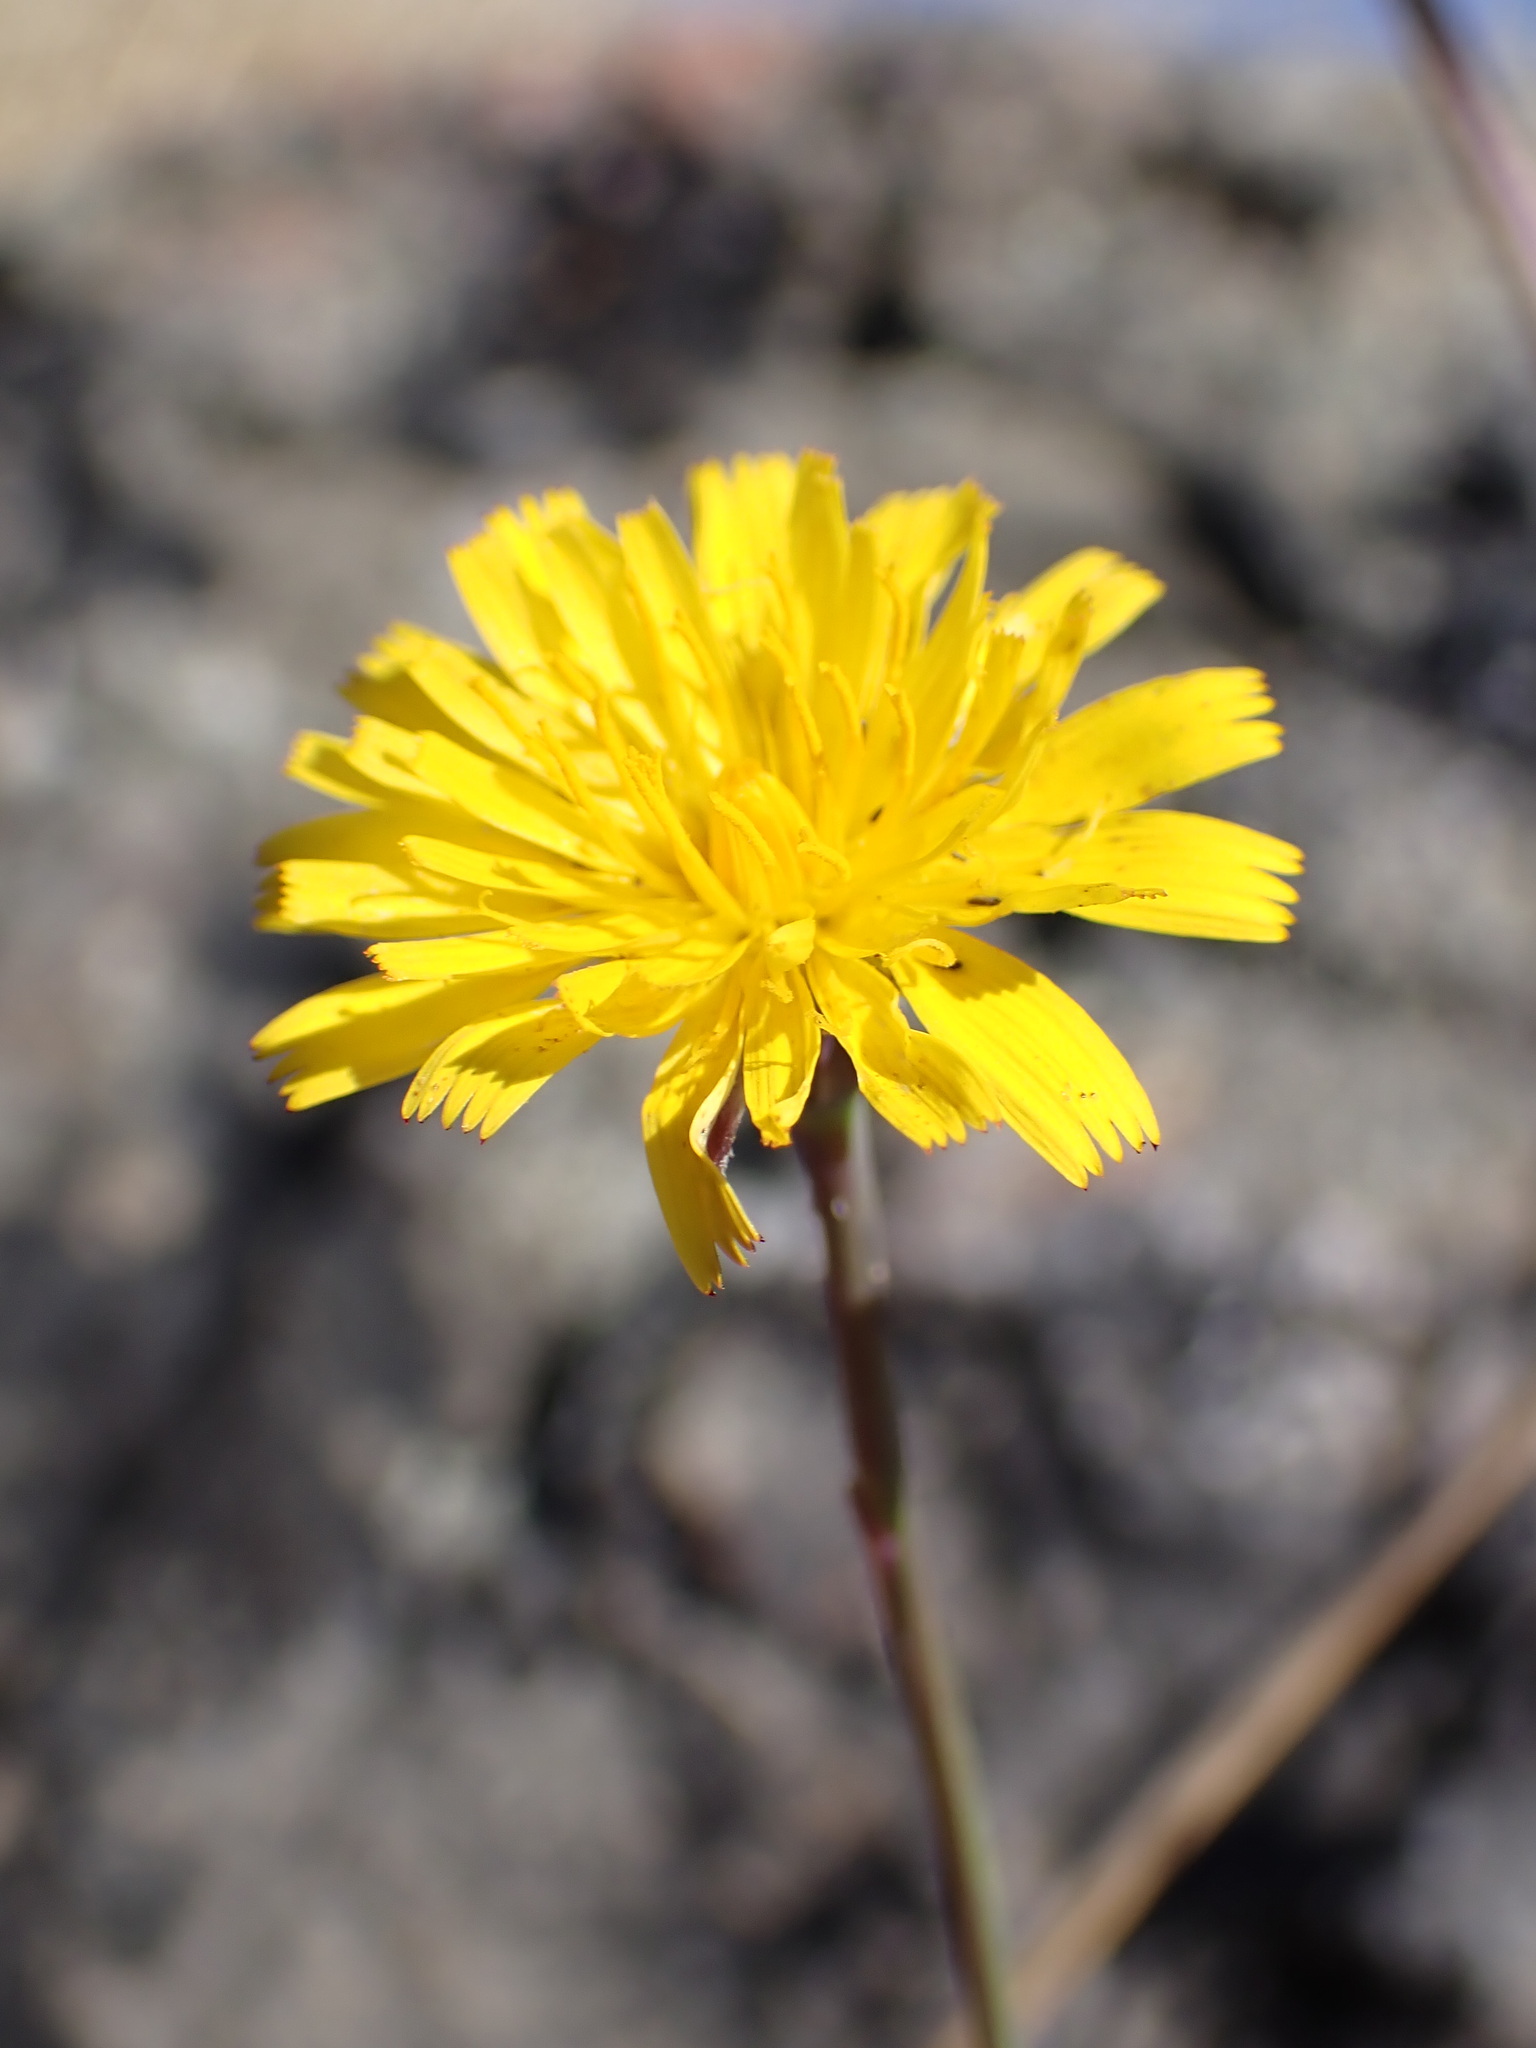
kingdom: Animalia
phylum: Arthropoda
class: Insecta
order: Hymenoptera
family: Cynipidae
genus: Phanacis
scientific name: Phanacis hypochoeridis
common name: Gall wasp
